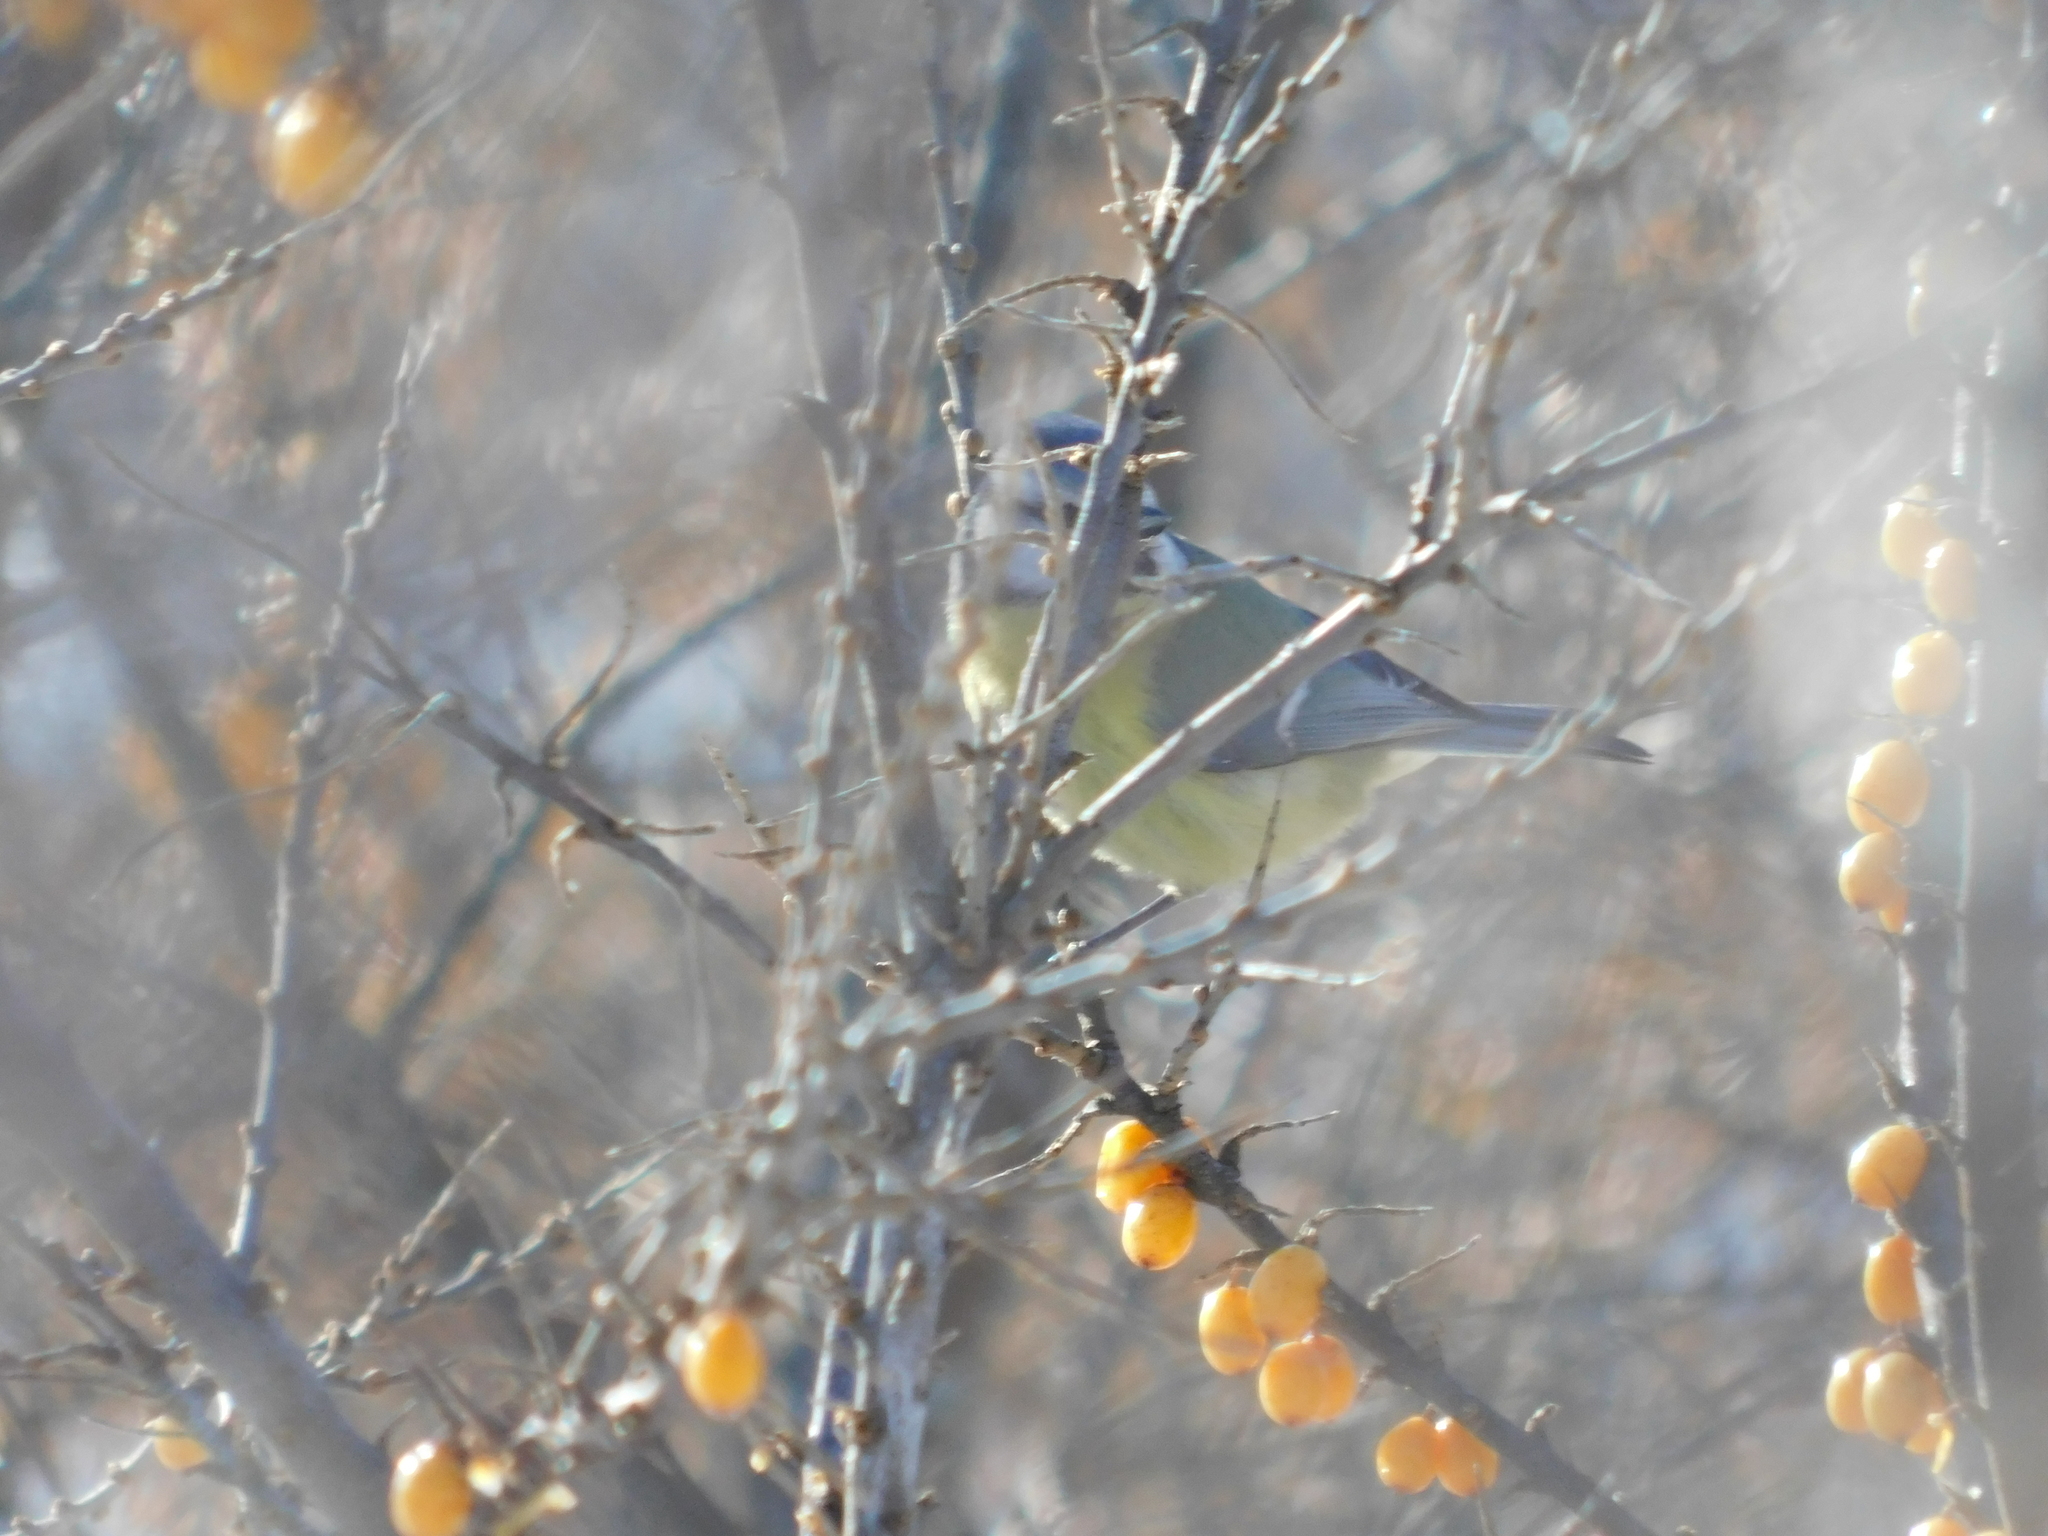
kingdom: Animalia
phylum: Chordata
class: Aves
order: Passeriformes
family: Paridae
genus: Cyanistes
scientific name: Cyanistes caeruleus
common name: Eurasian blue tit
